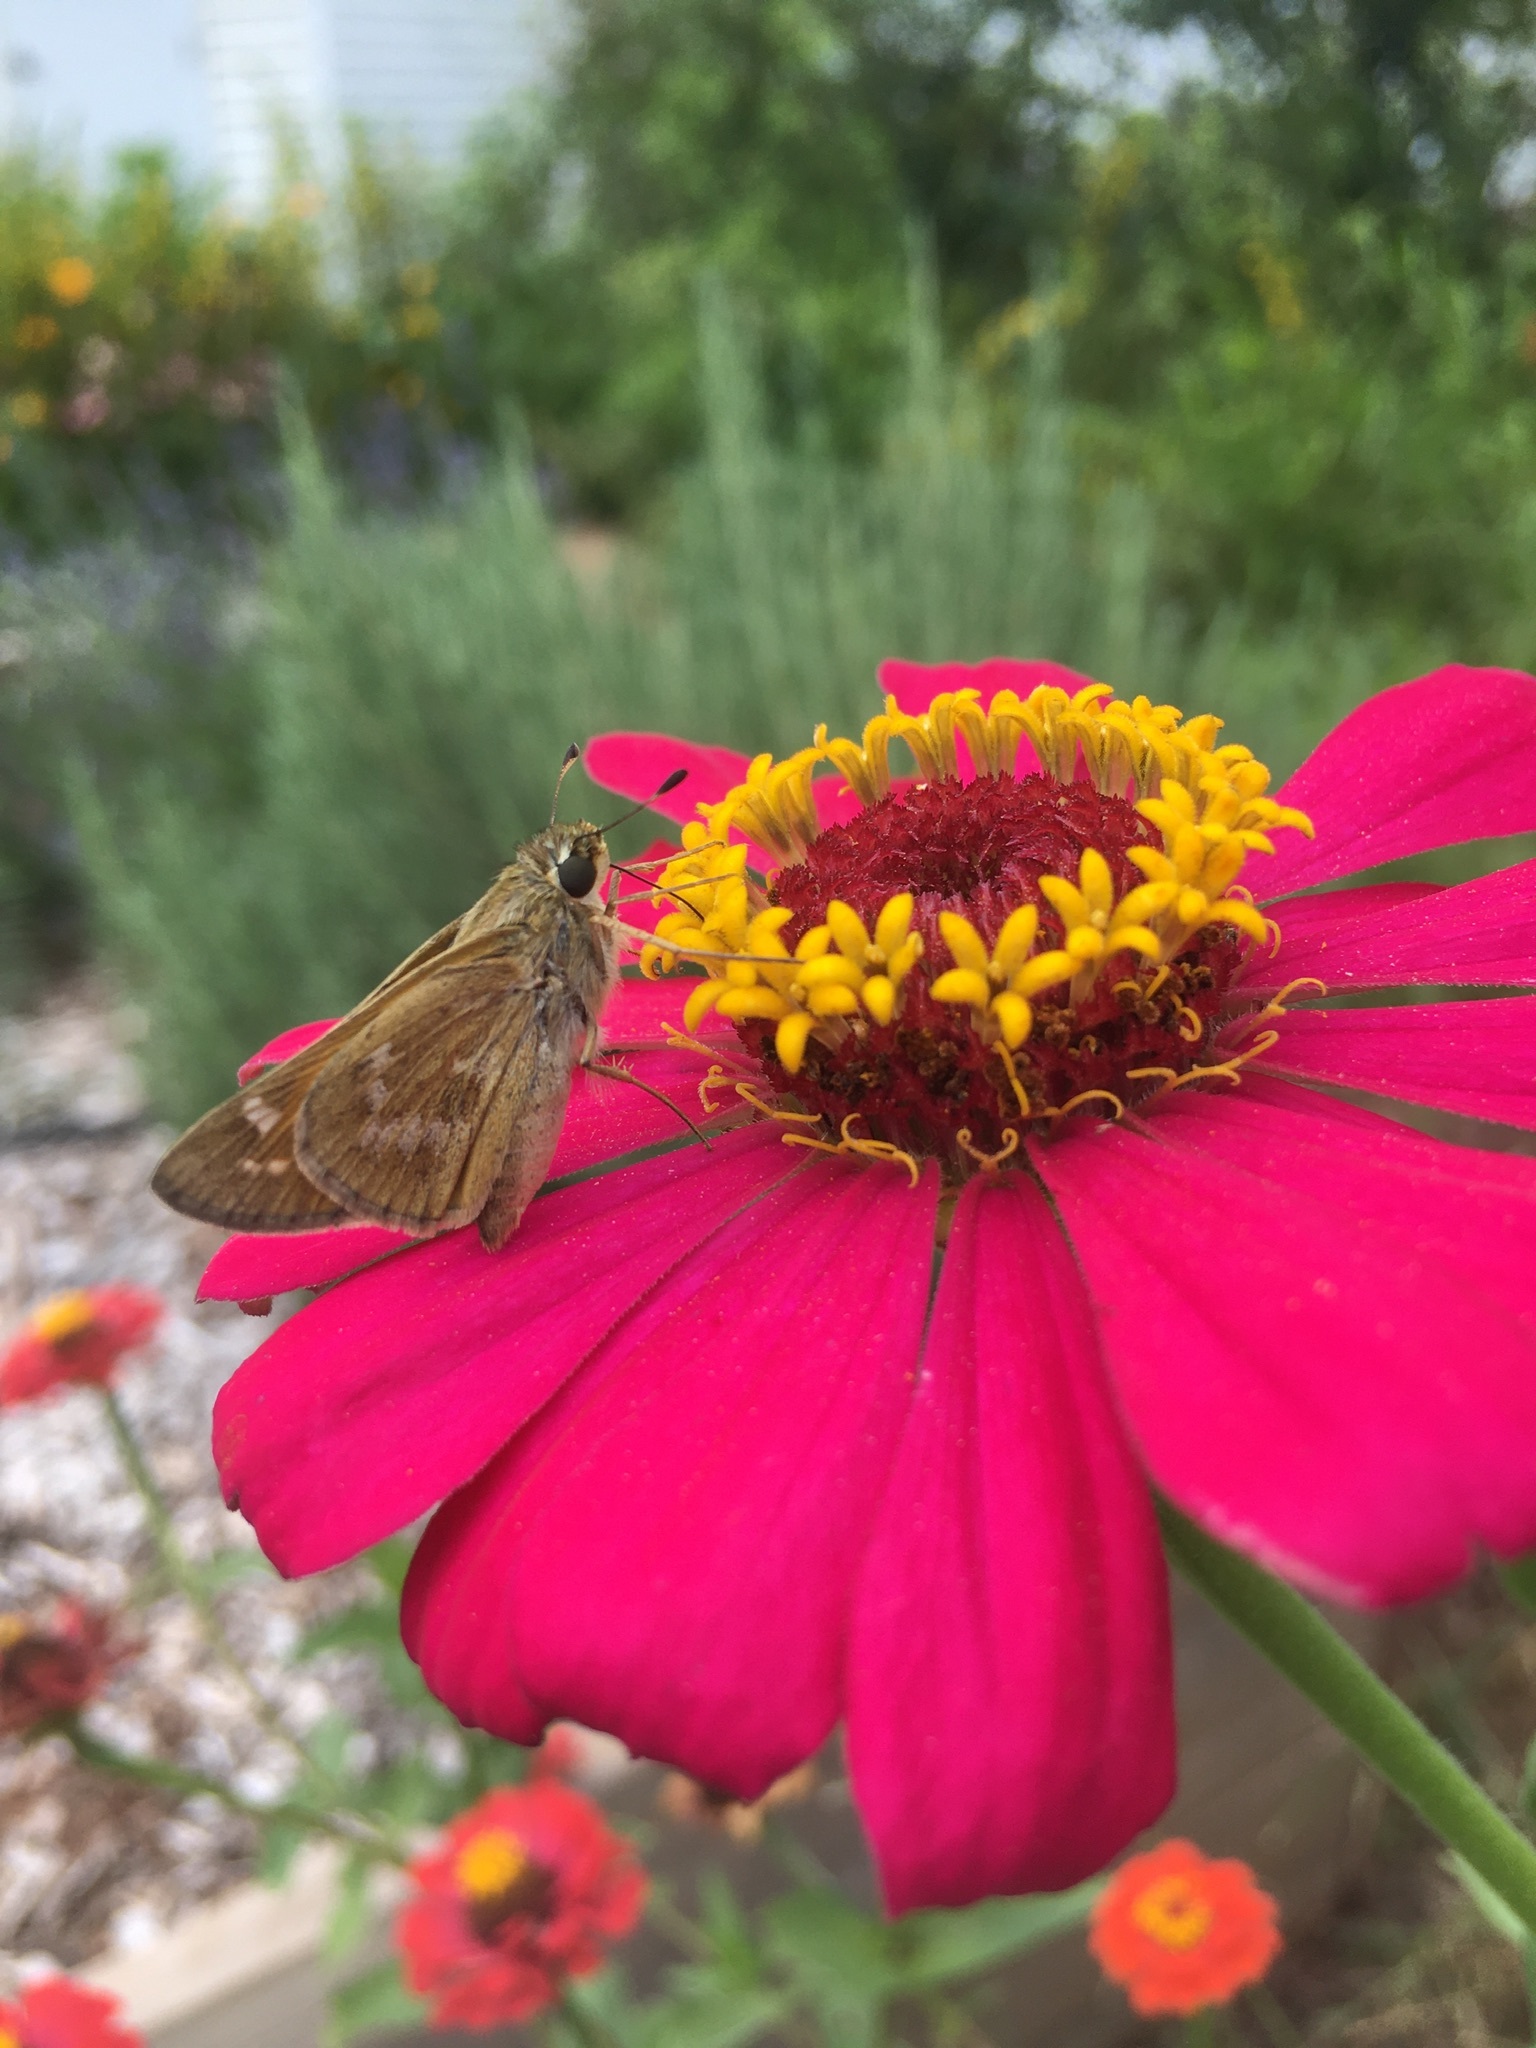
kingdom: Animalia
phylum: Arthropoda
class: Insecta
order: Lepidoptera
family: Hesperiidae
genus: Atalopedes
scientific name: Atalopedes
